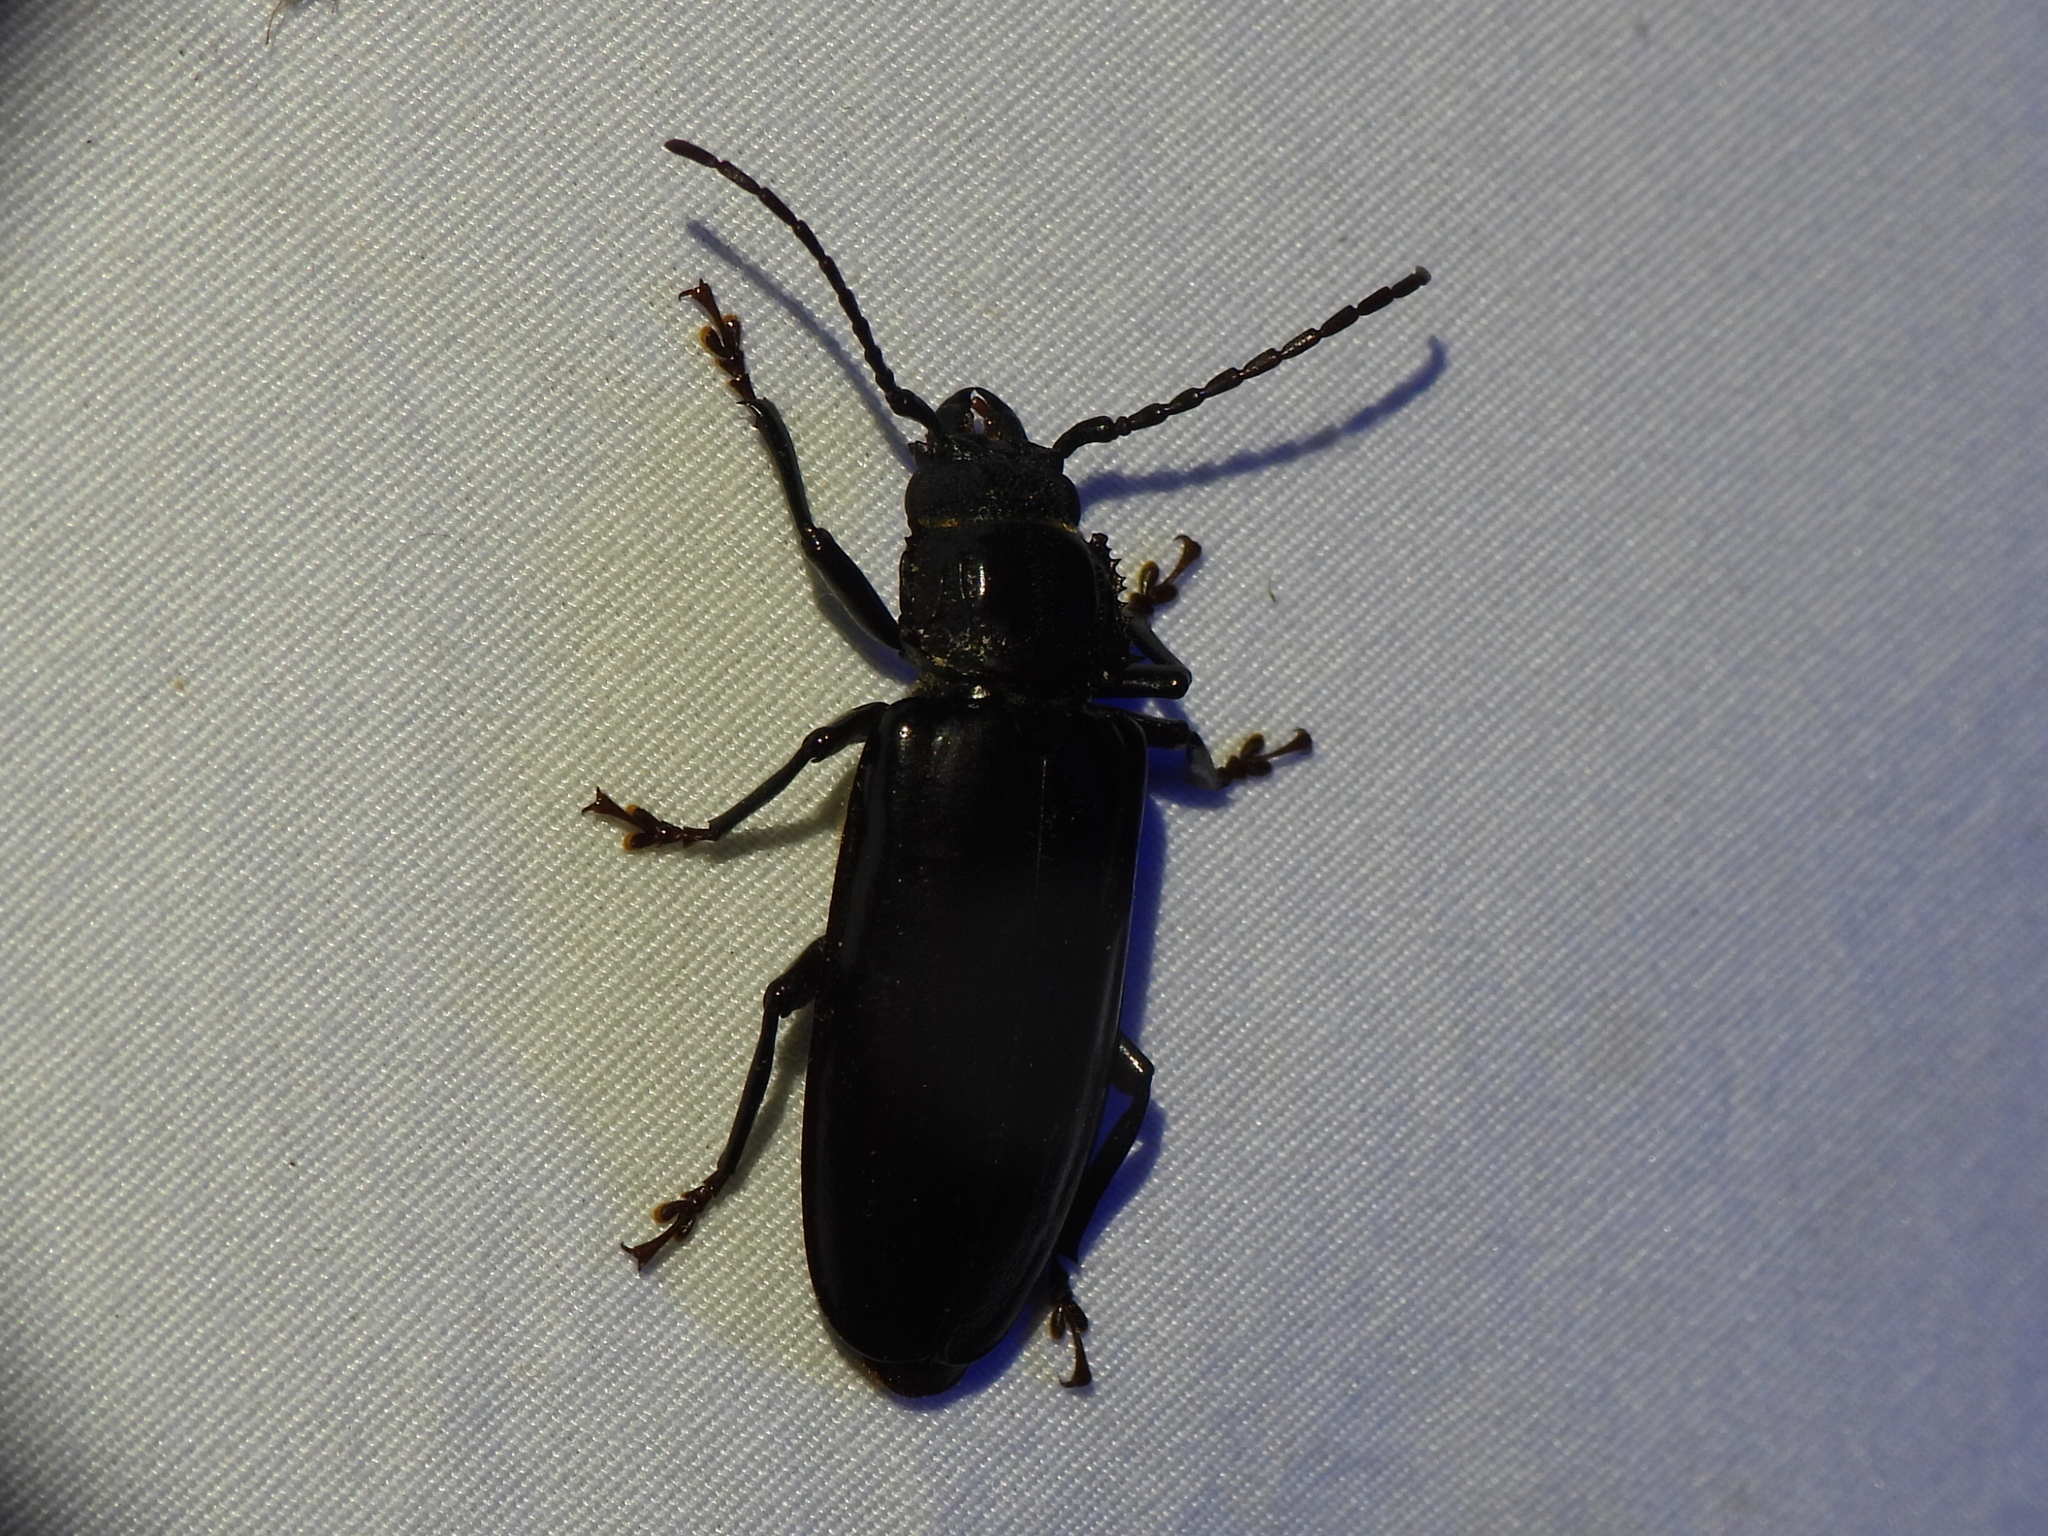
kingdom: Animalia
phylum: Arthropoda
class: Insecta
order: Coleoptera
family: Cerambycidae
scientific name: Cerambycidae
